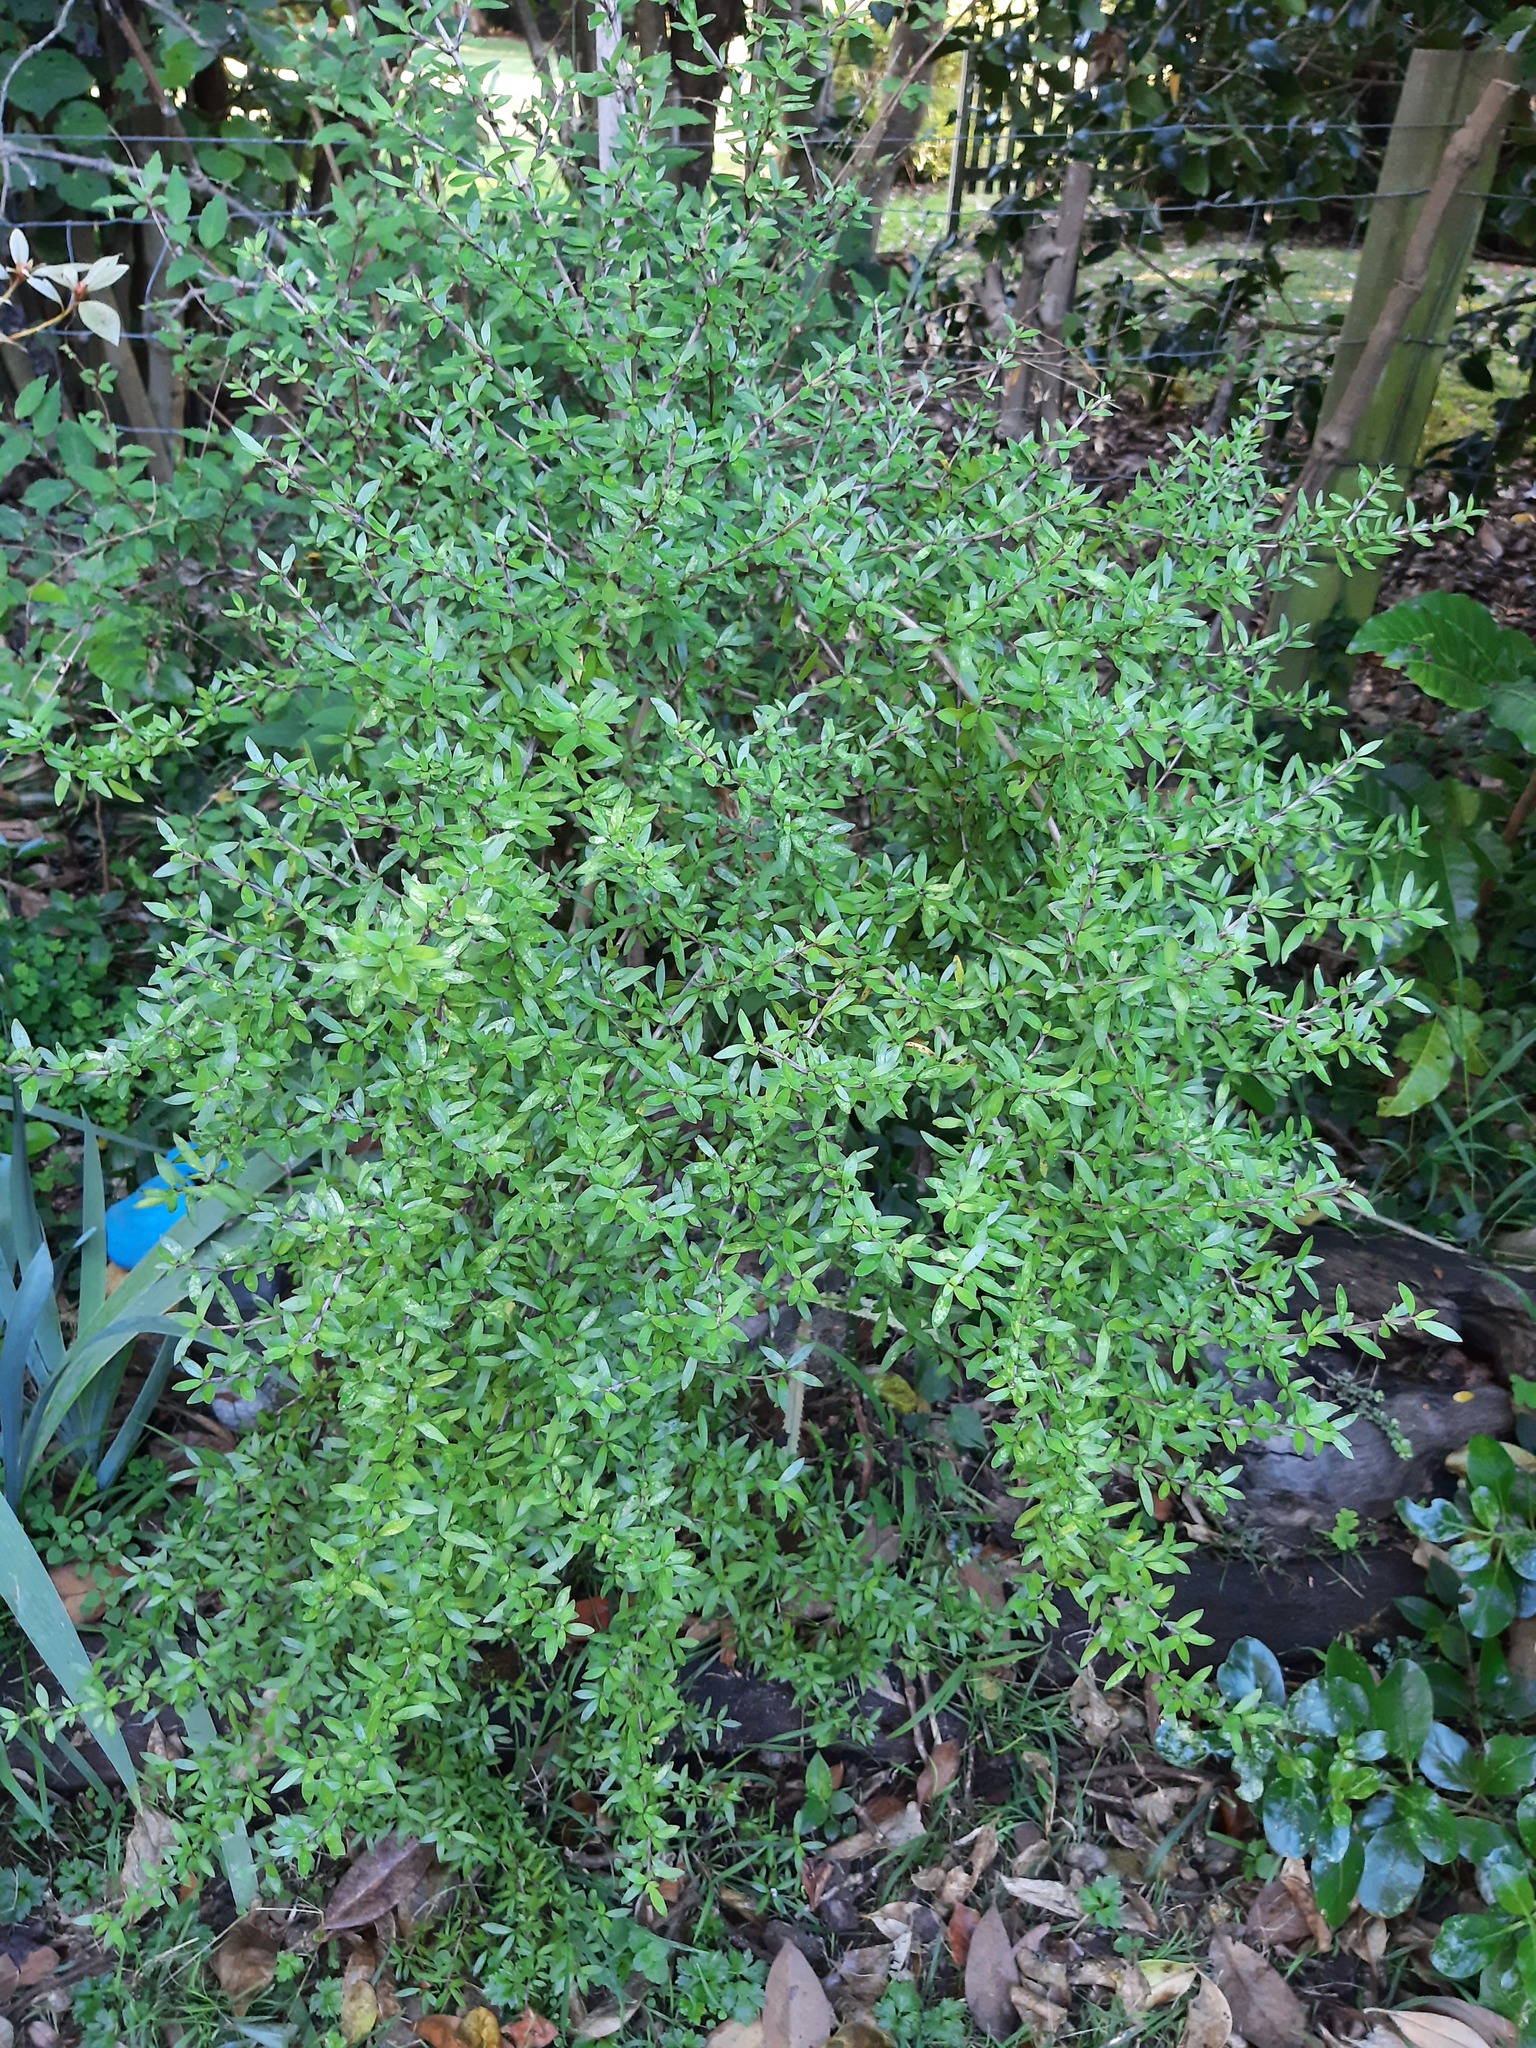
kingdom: Plantae
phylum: Tracheophyta
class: Magnoliopsida
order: Gentianales
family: Rubiaceae
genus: Coprosma
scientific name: Coprosma cunninghamii
